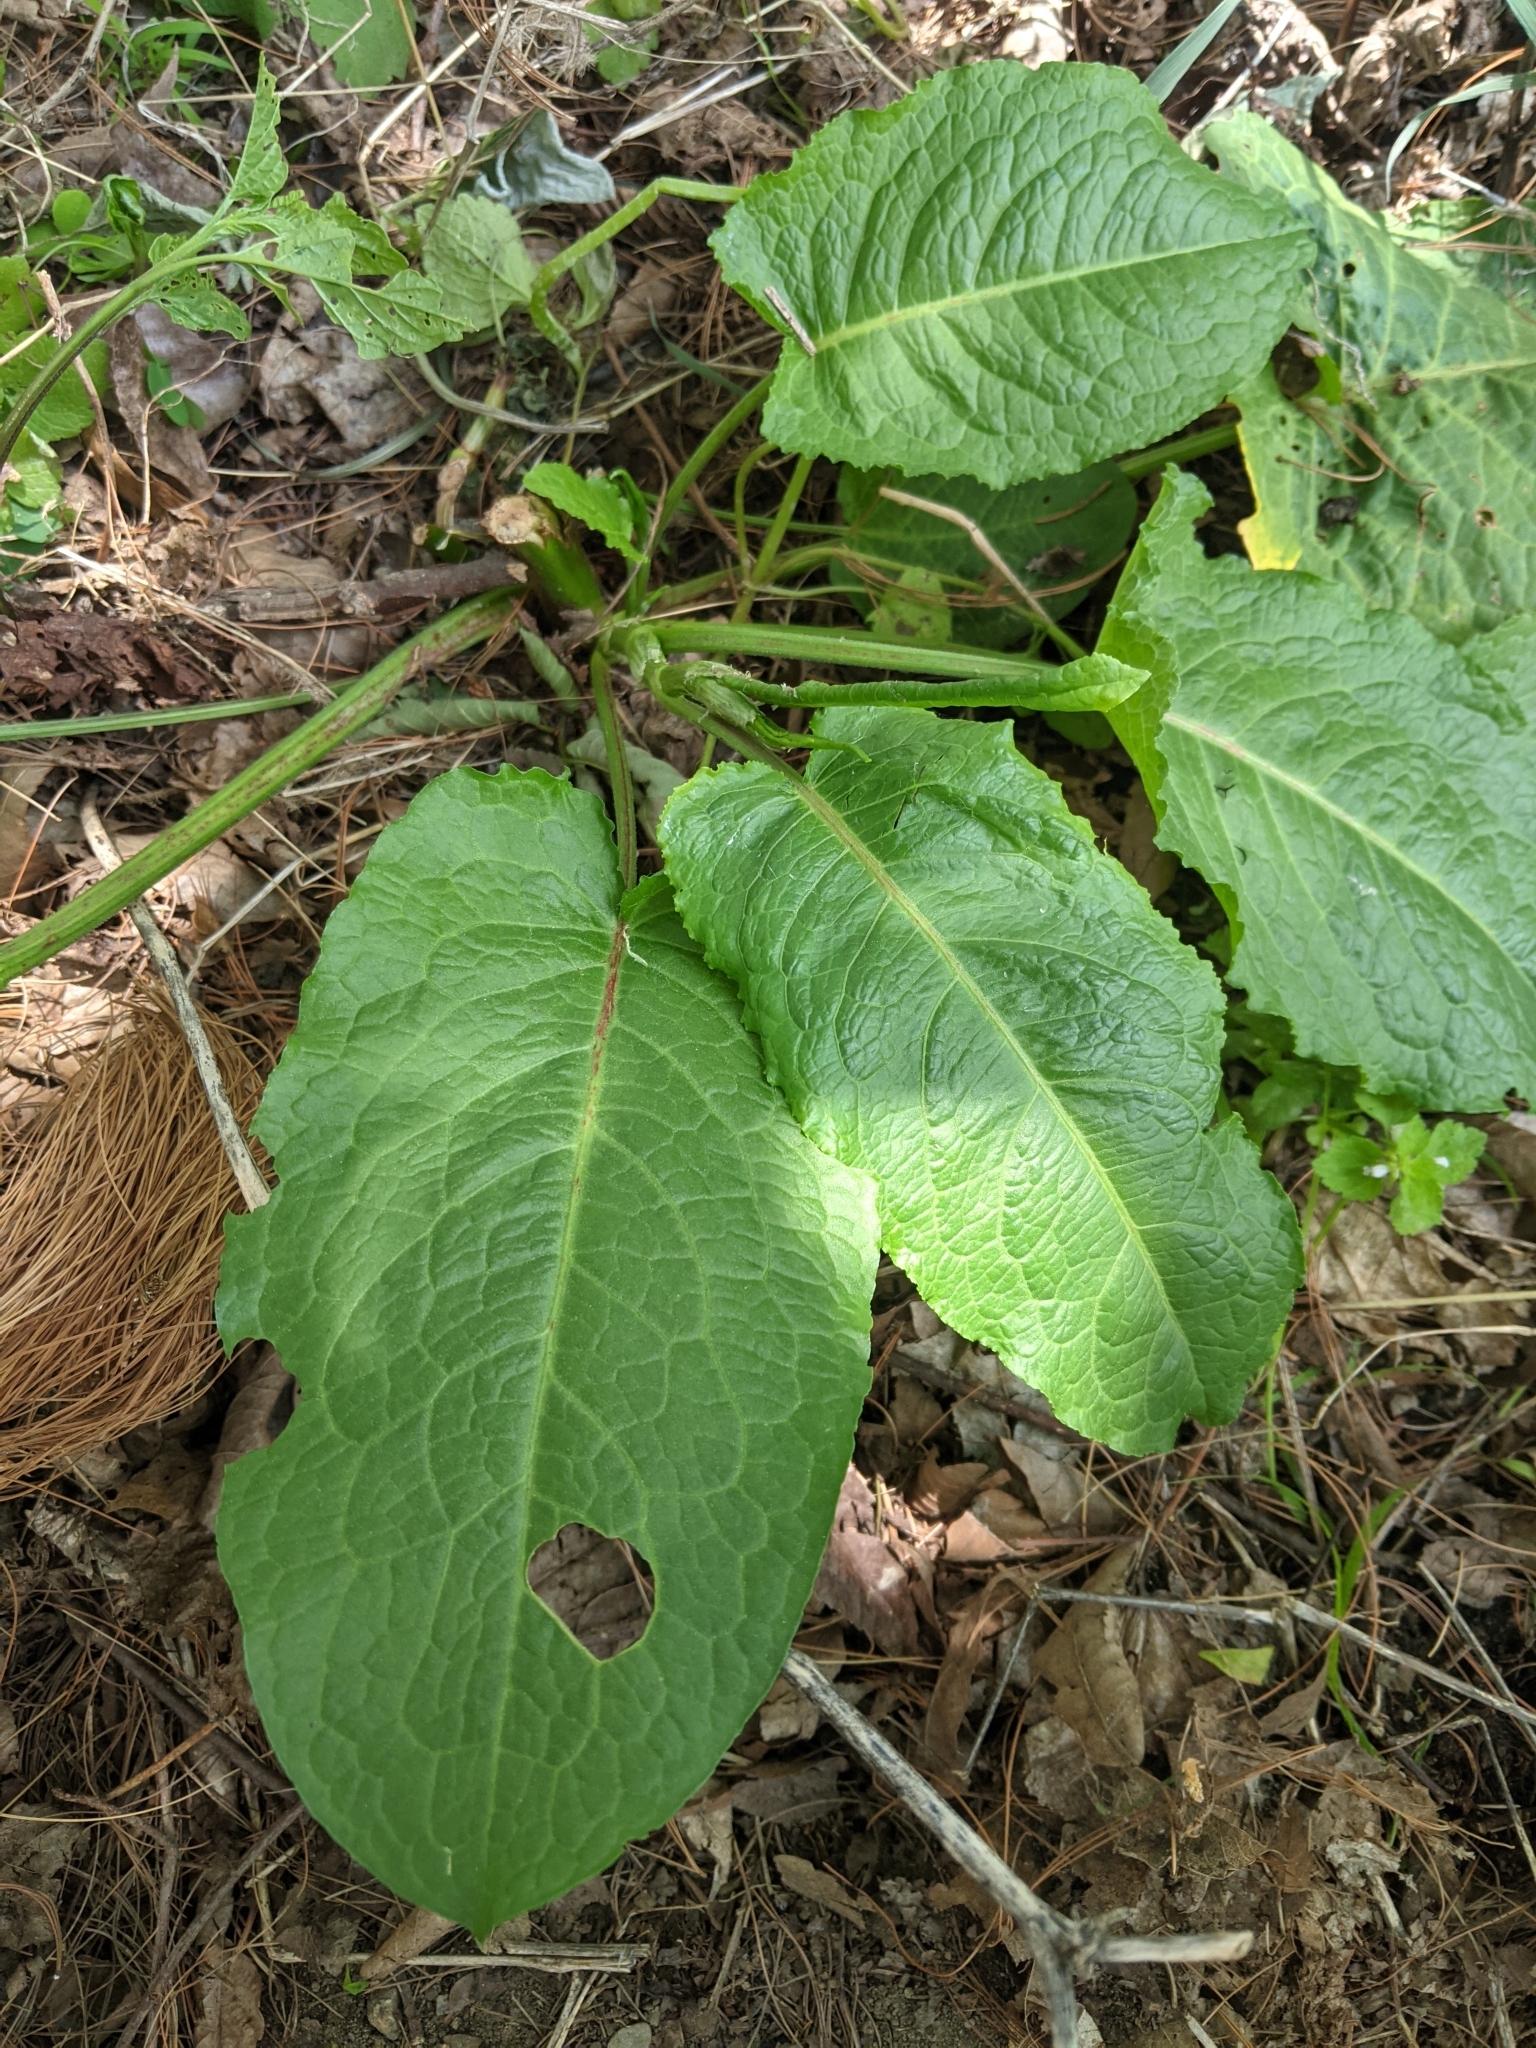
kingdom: Plantae
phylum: Tracheophyta
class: Magnoliopsida
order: Caryophyllales
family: Polygonaceae
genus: Rumex
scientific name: Rumex obtusifolius
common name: Bitter dock
